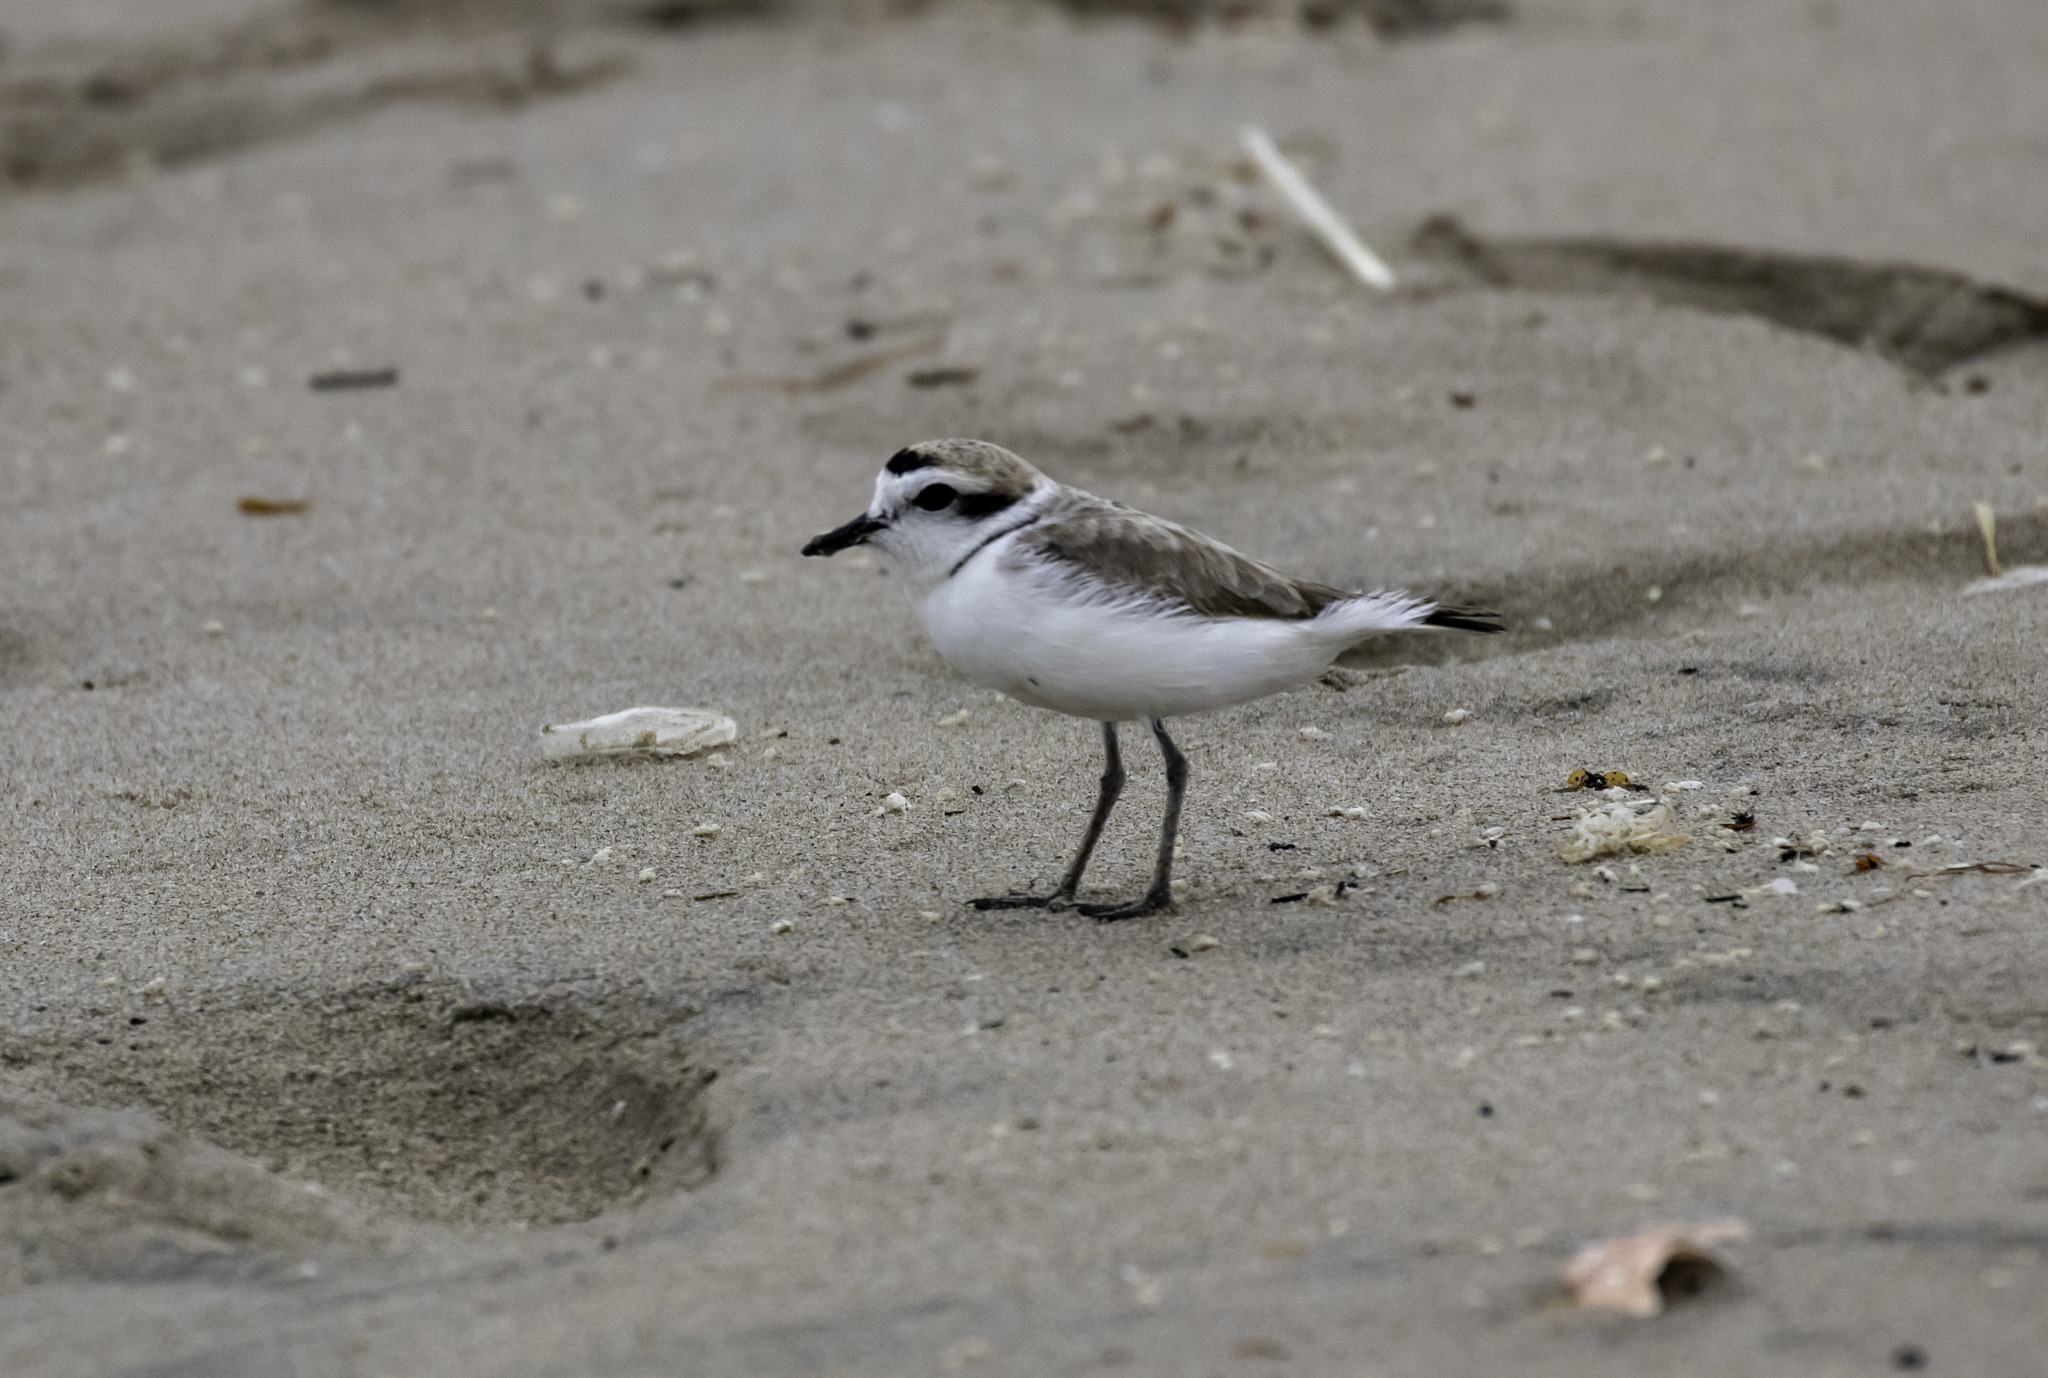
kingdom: Animalia
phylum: Chordata
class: Aves
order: Charadriiformes
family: Charadriidae
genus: Anarhynchus
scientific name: Anarhynchus
